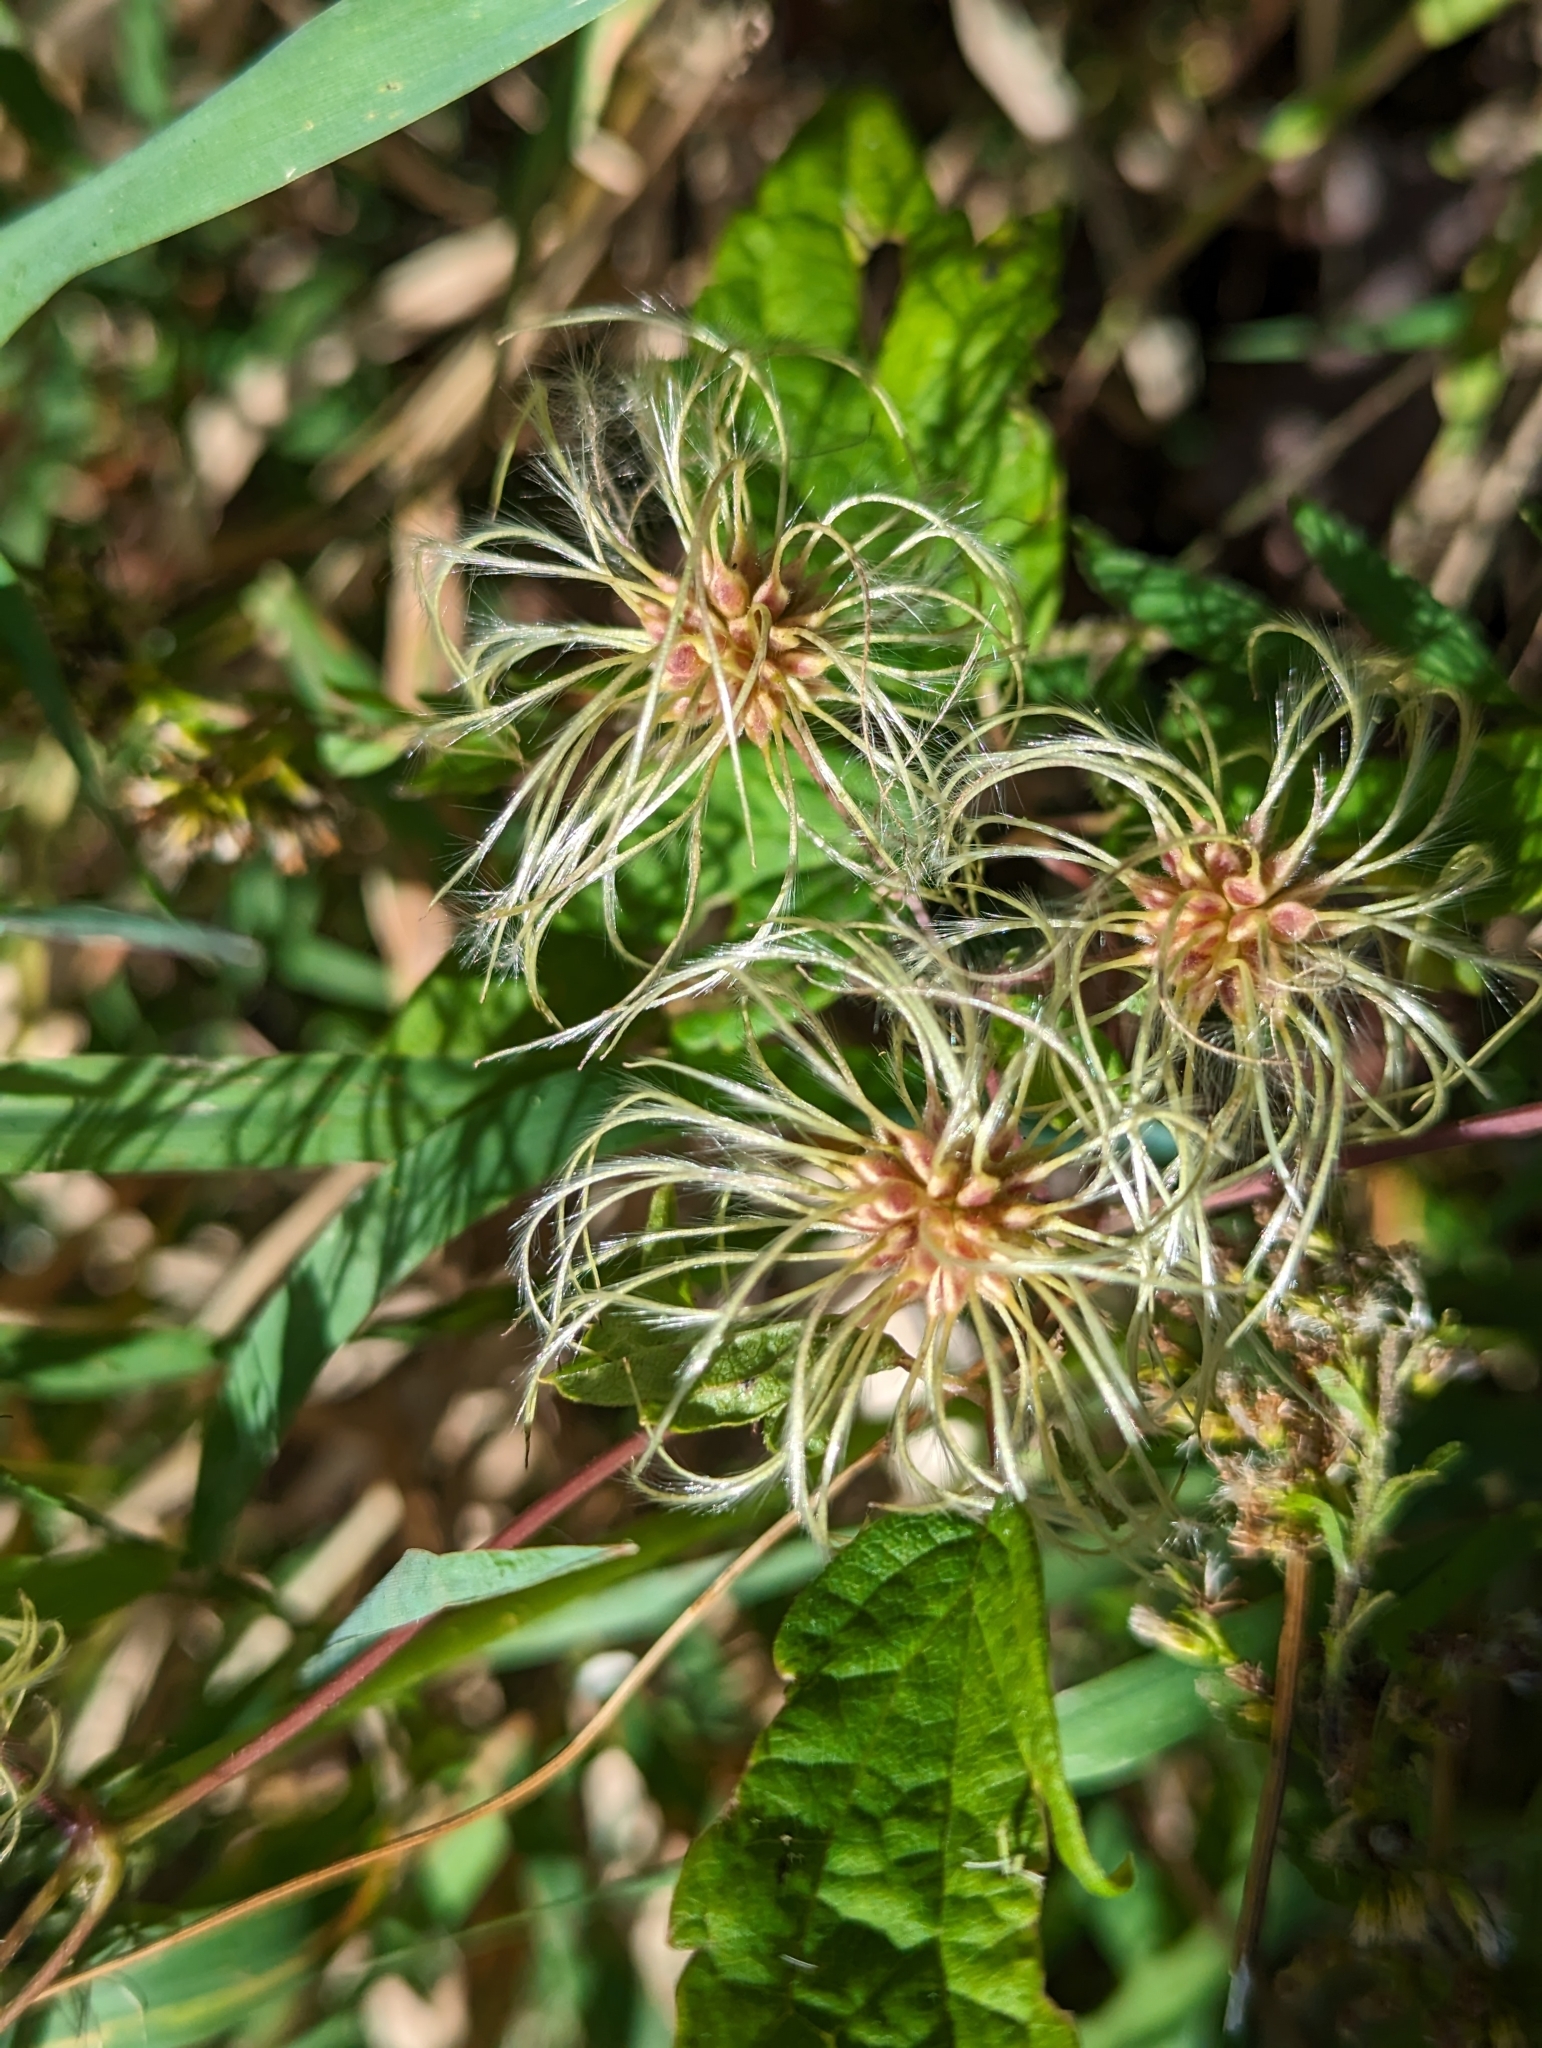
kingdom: Plantae
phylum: Tracheophyta
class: Magnoliopsida
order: Ranunculales
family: Ranunculaceae
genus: Clematis
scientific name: Clematis virginiana
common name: Virgin's-bower
